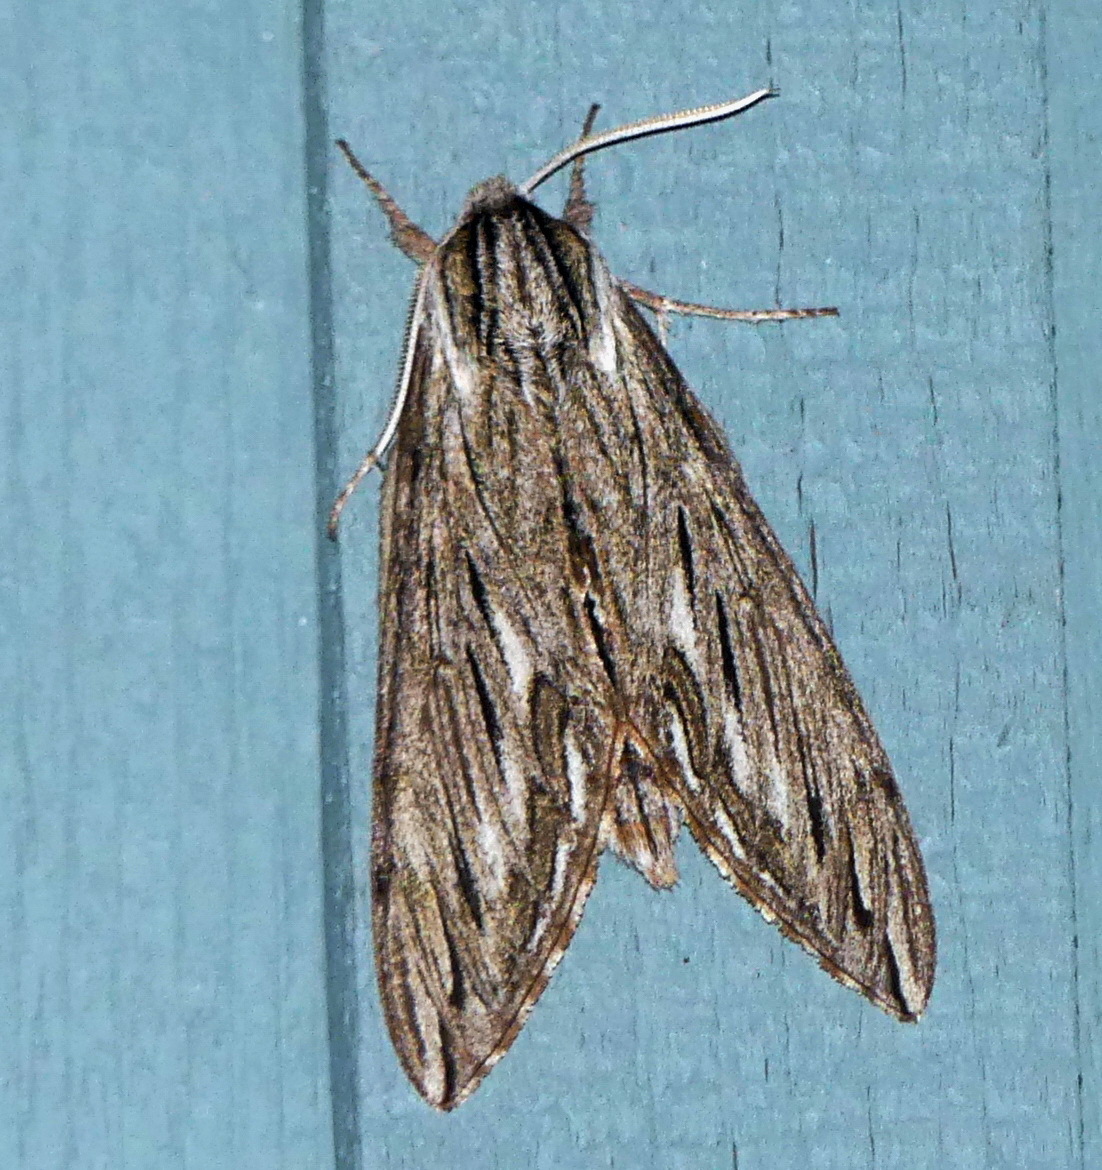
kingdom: Animalia
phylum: Arthropoda
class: Insecta
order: Lepidoptera
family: Sphingidae
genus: Sphinx
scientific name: Sphinx canadensis
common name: Canadian sphinx
